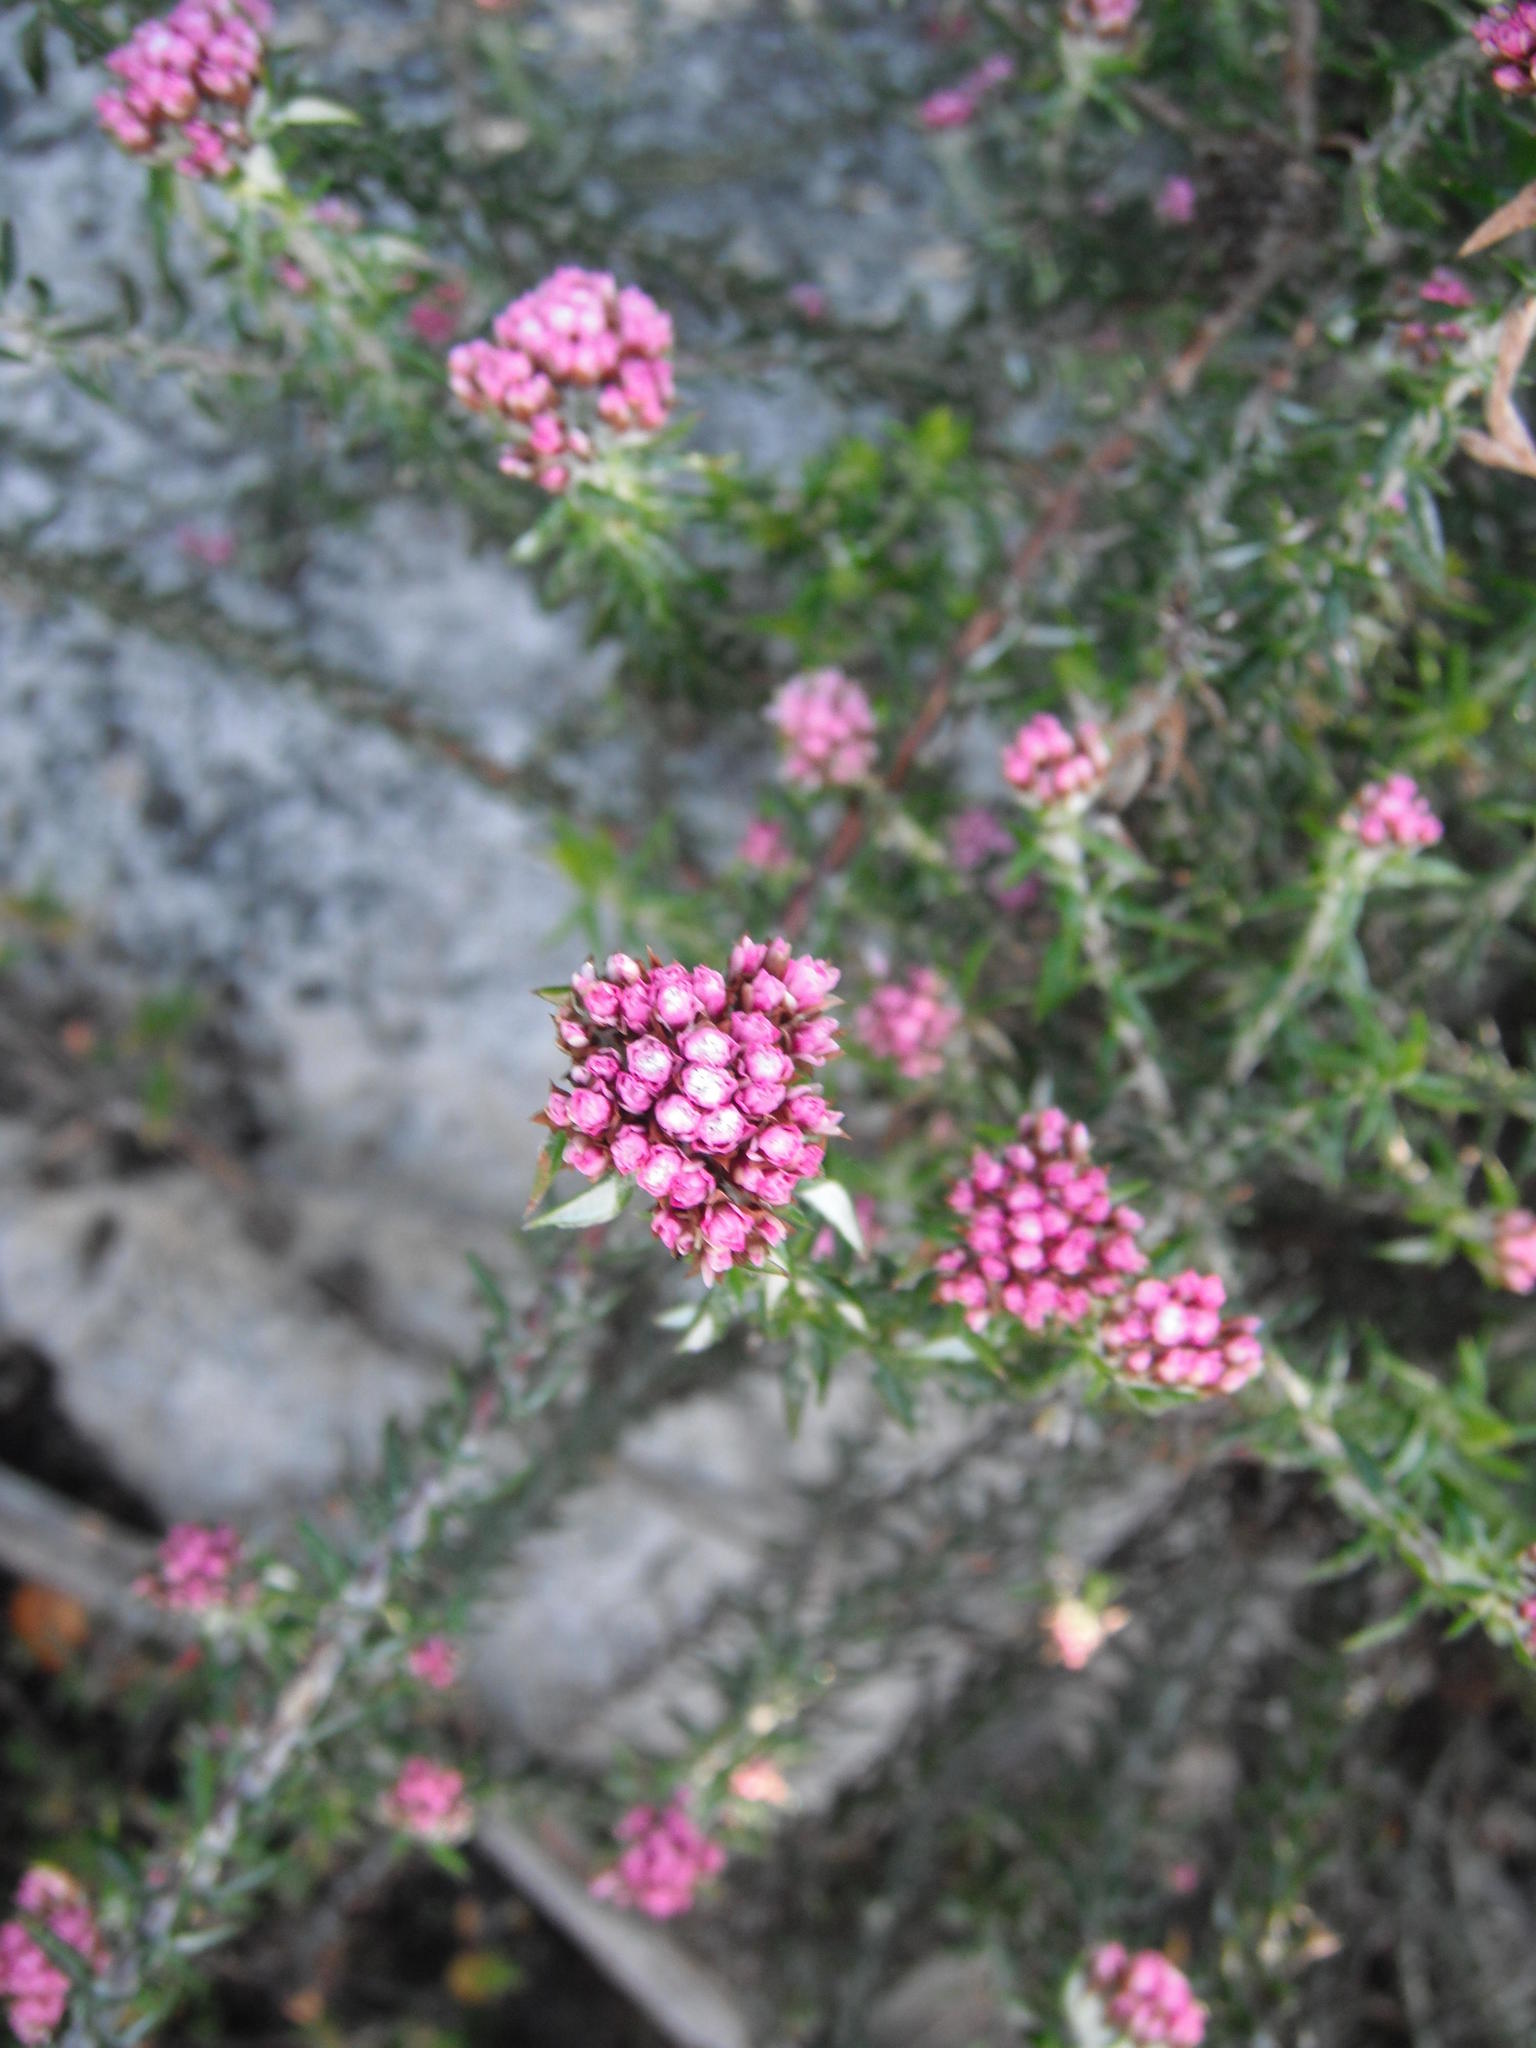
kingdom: Plantae
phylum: Tracheophyta
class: Magnoliopsida
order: Asterales
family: Asteraceae
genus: Metalasia
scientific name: Metalasia divergens
